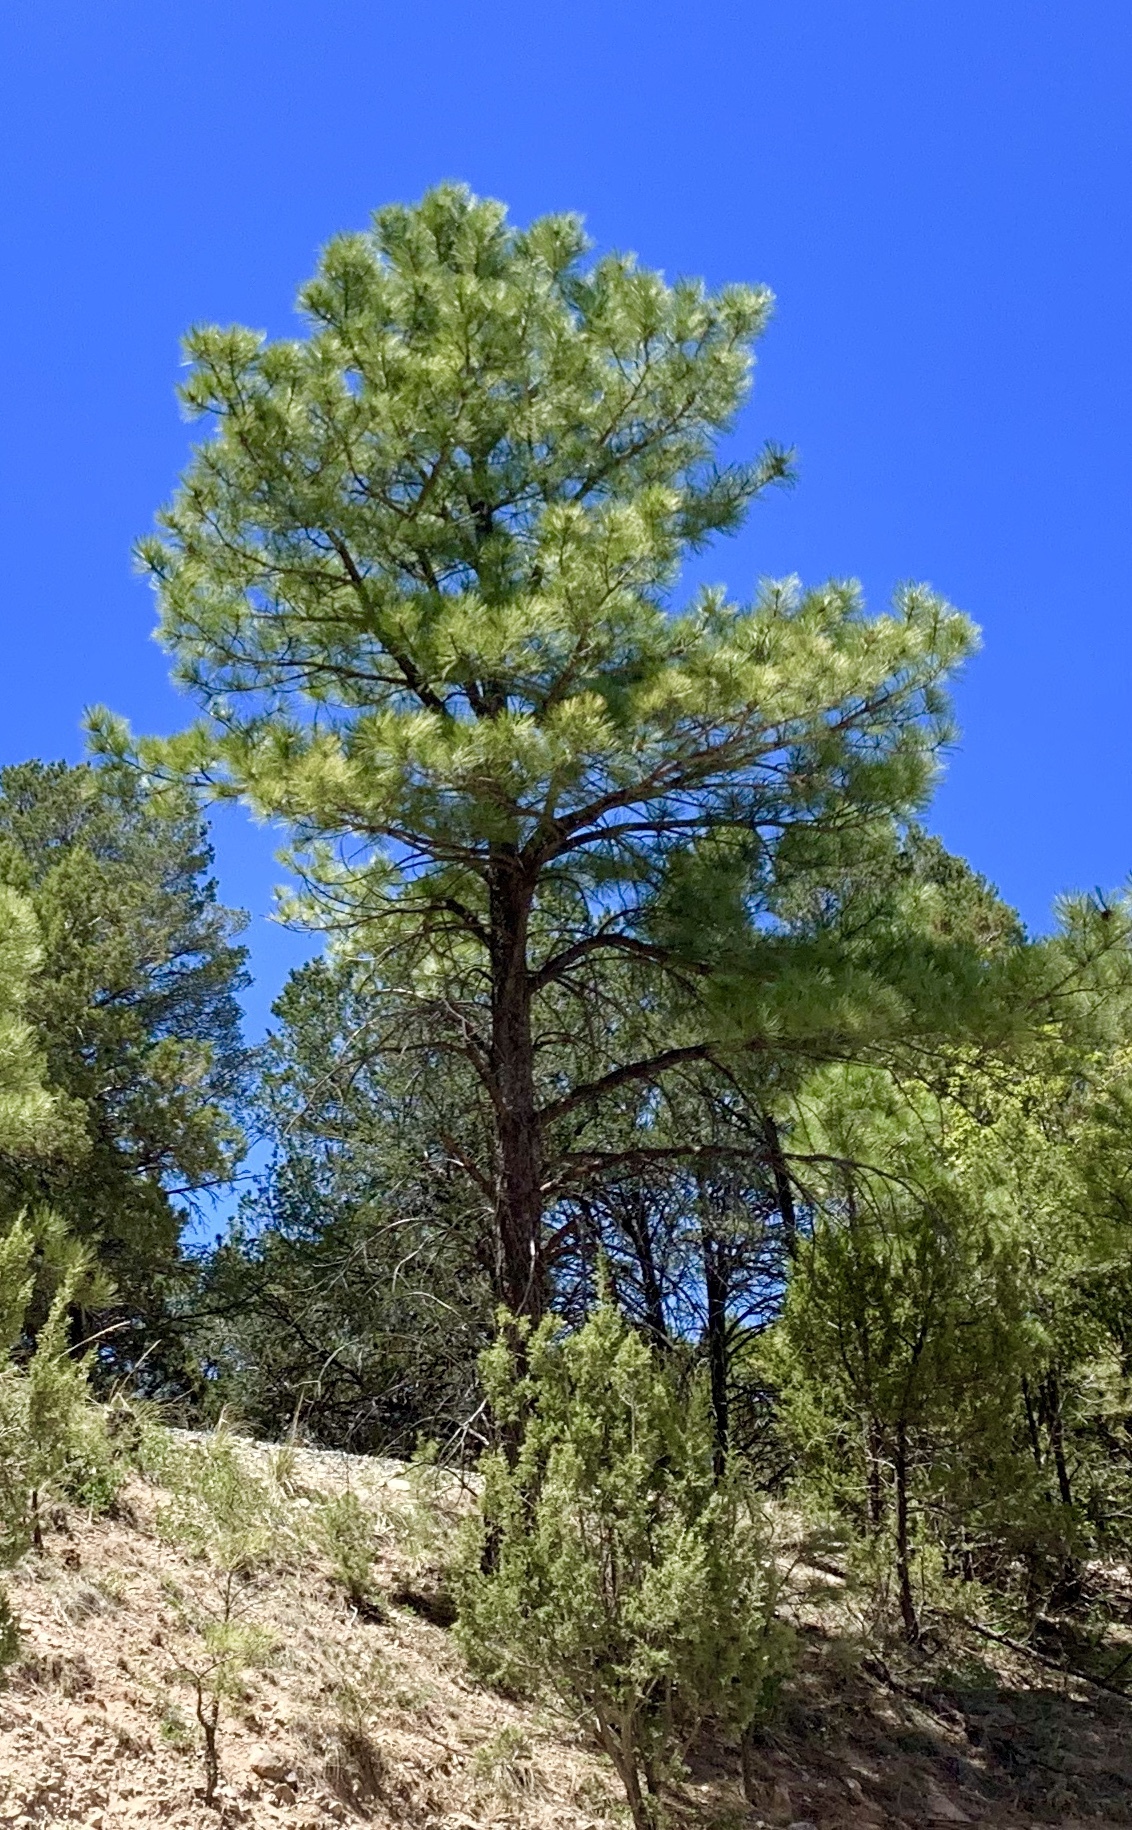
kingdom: Plantae
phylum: Tracheophyta
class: Pinopsida
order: Pinales
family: Pinaceae
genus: Pinus
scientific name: Pinus ponderosa
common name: Western yellow-pine
